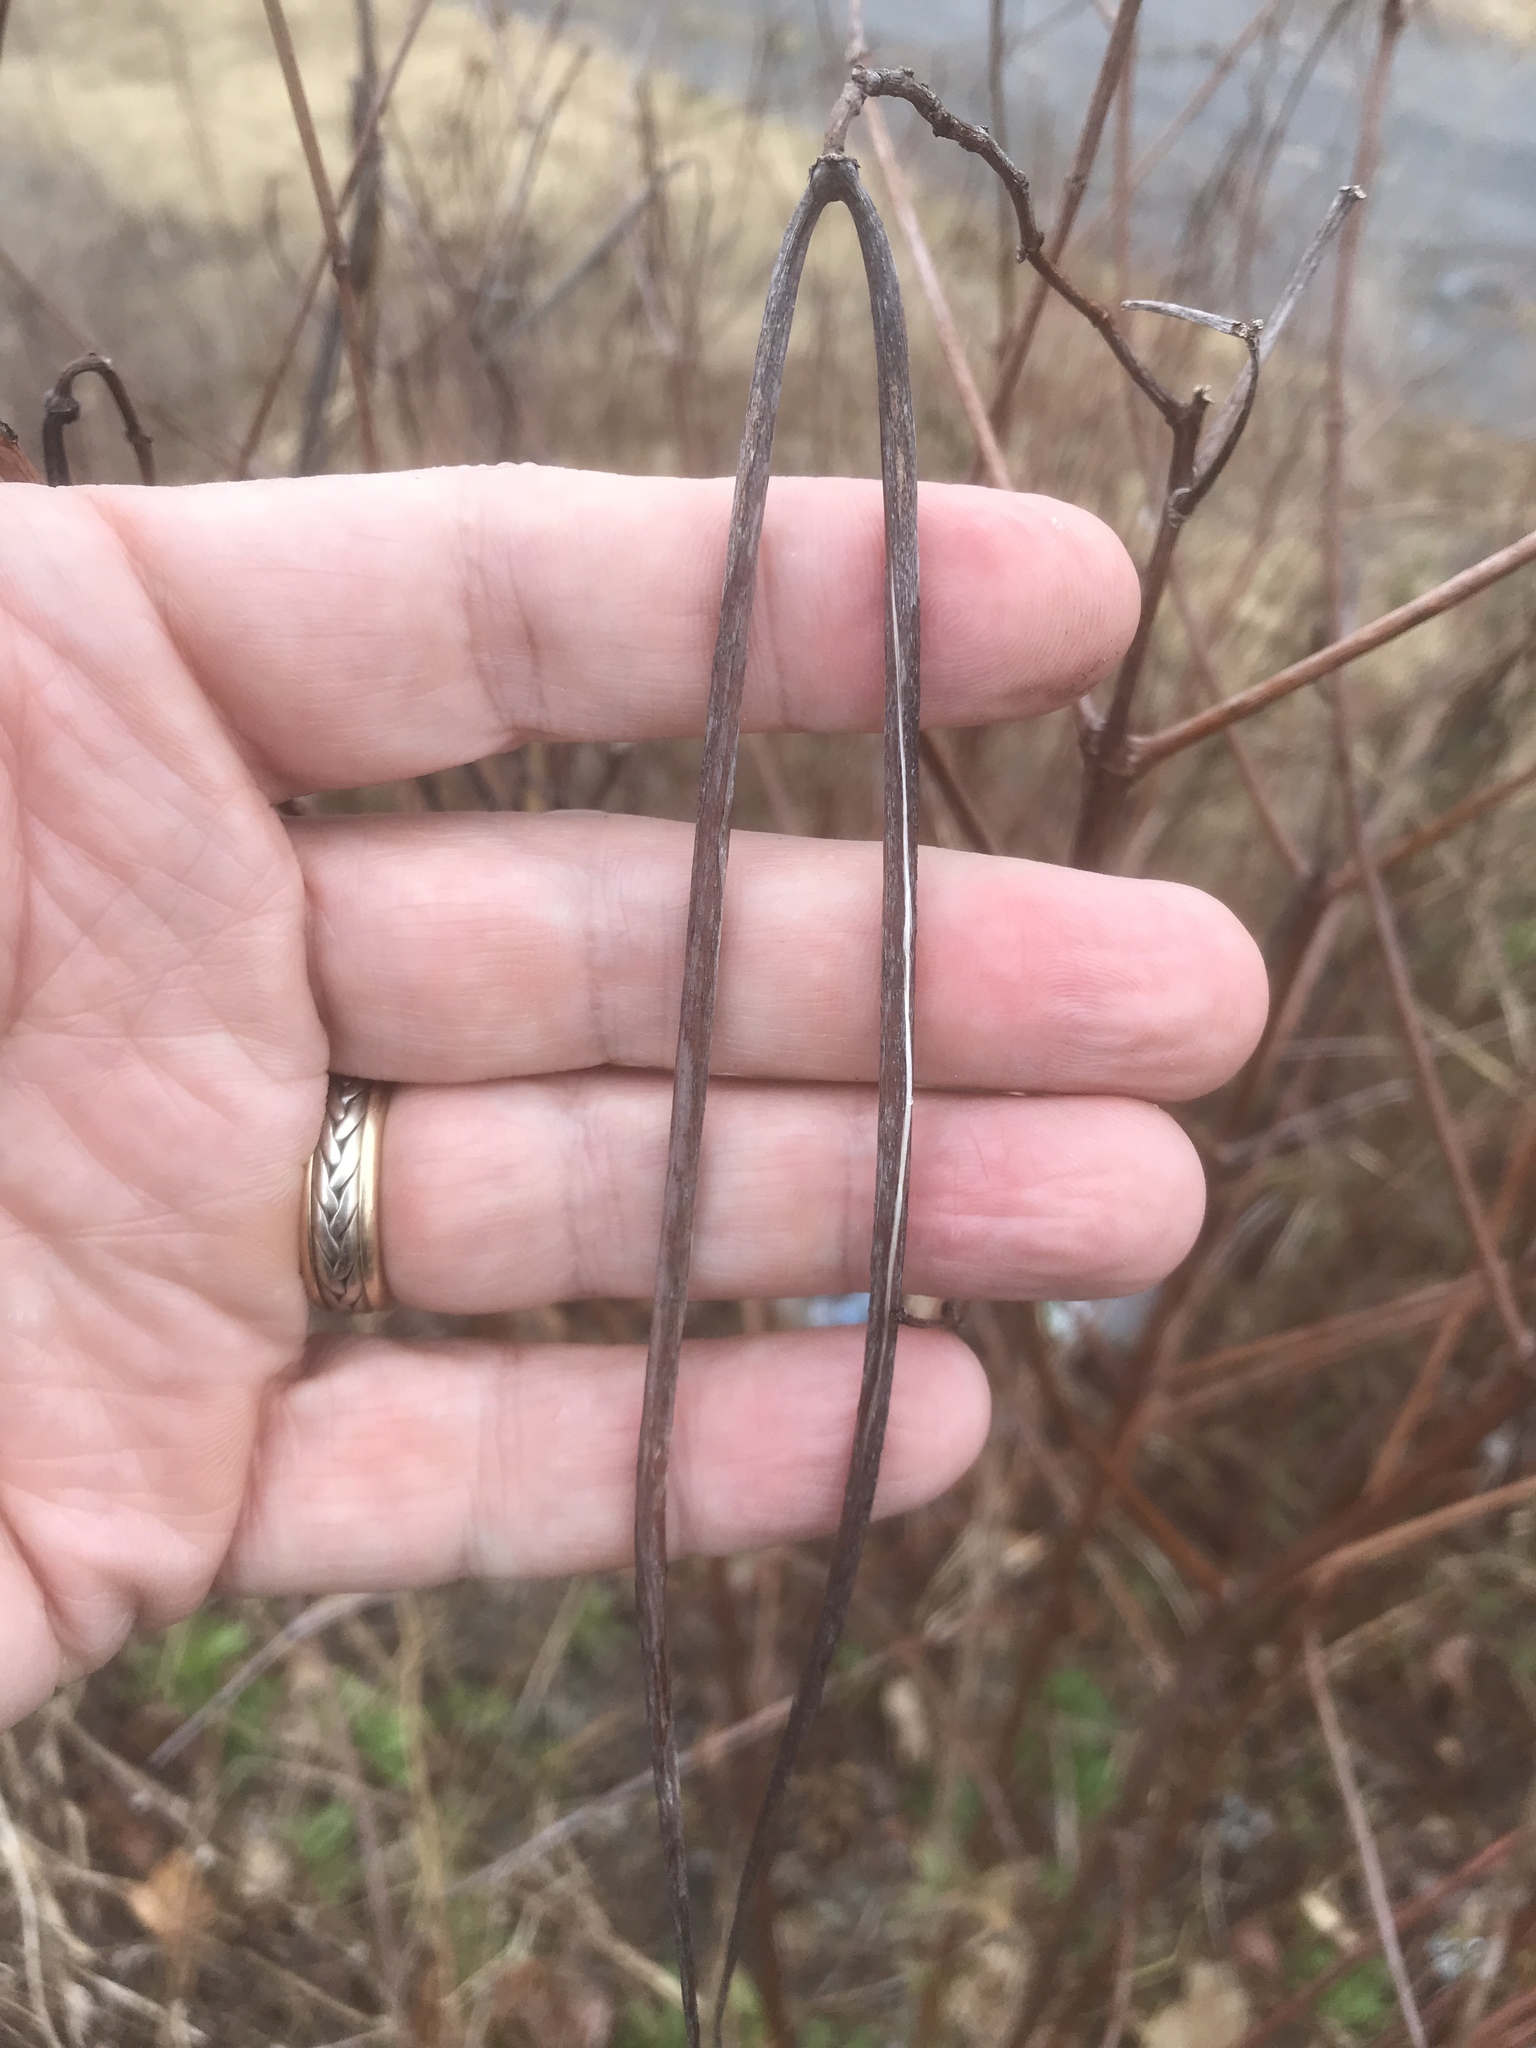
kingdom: Plantae
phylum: Tracheophyta
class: Magnoliopsida
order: Gentianales
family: Apocynaceae
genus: Apocynum
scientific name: Apocynum cannabinum
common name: Hemp dogbane
